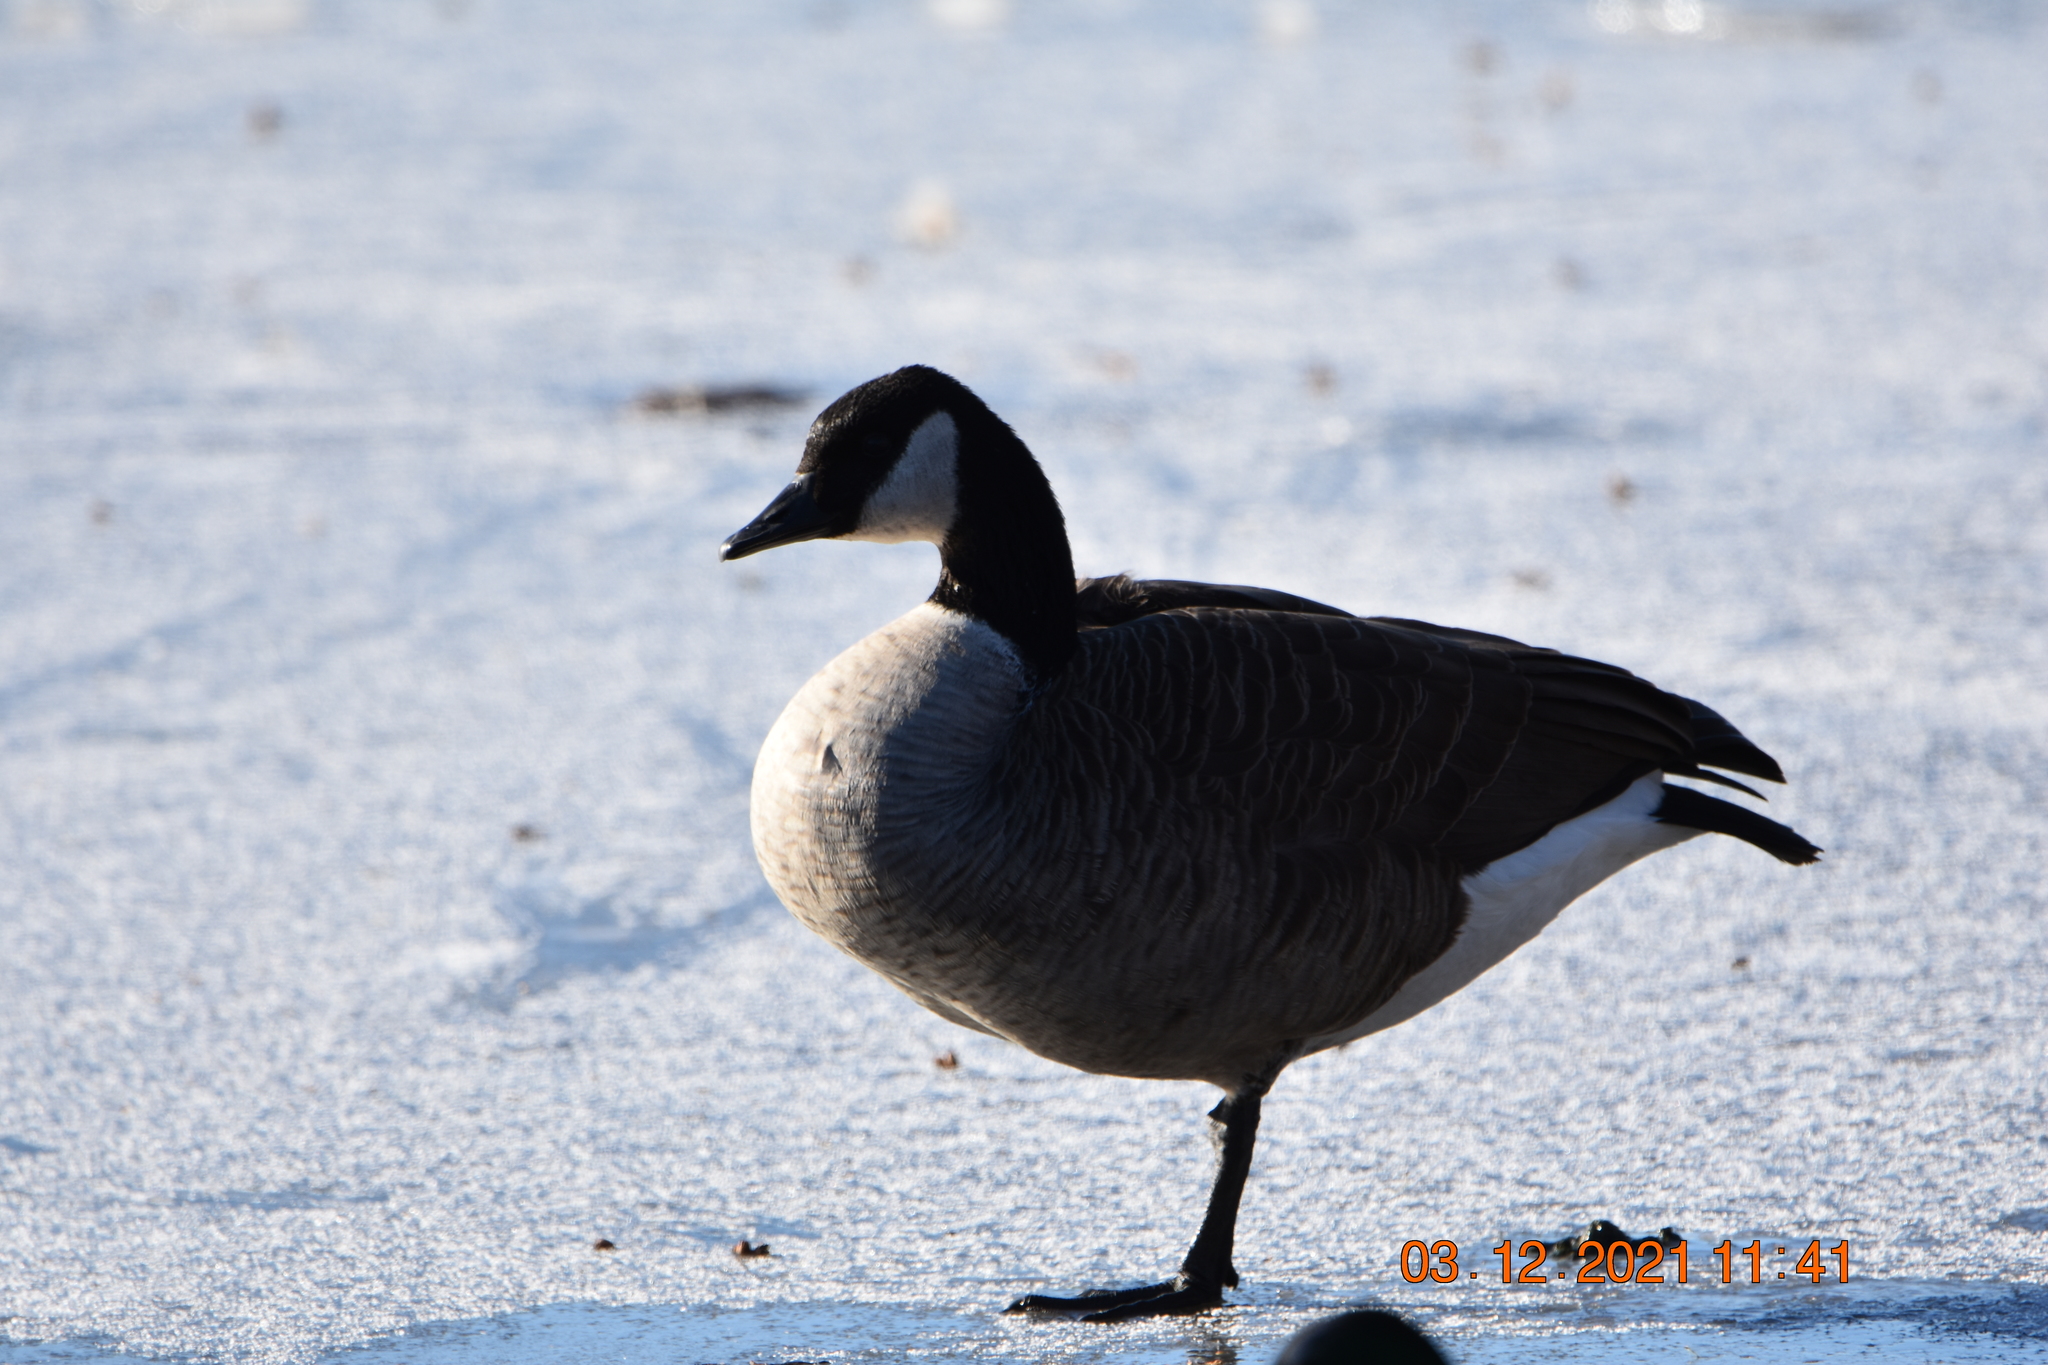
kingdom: Animalia
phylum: Chordata
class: Aves
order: Anseriformes
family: Anatidae
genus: Branta
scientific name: Branta canadensis
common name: Canada goose
